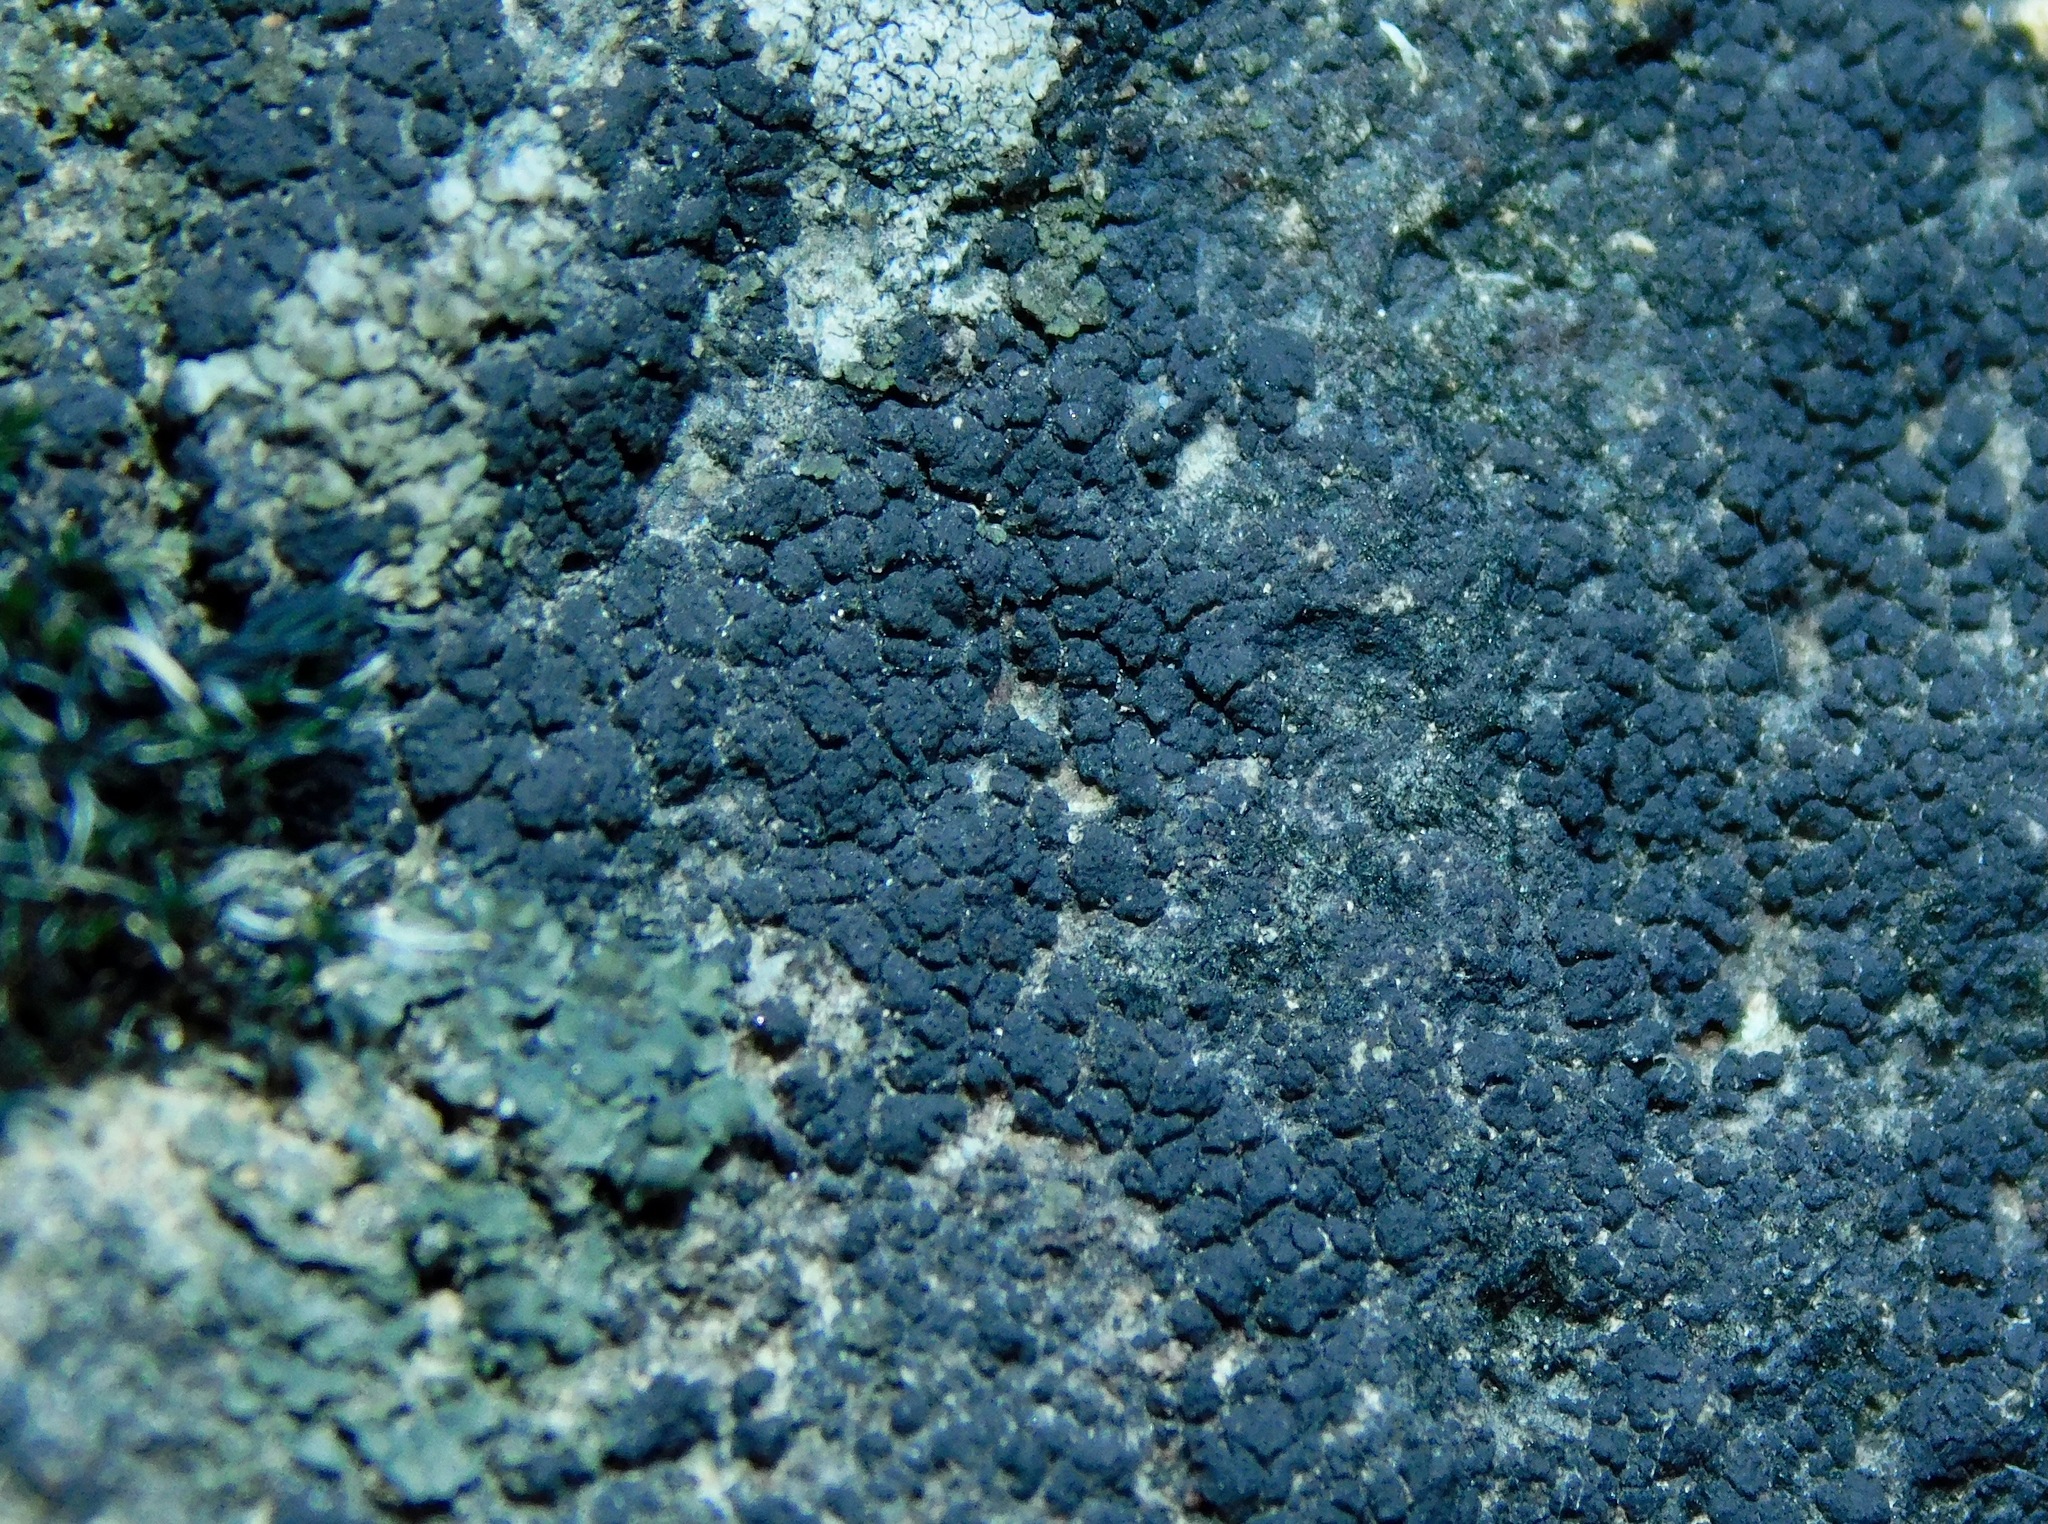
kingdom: Fungi
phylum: Ascomycota
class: Lichinomycetes
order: Lichinales
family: Lichinaceae
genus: Phylliscum
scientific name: Phylliscum
